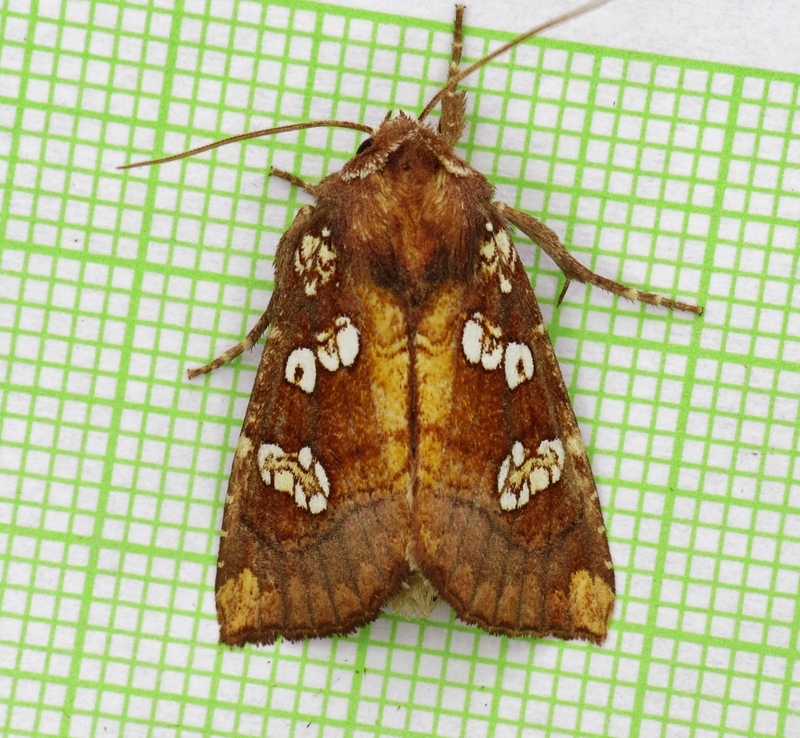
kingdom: Animalia
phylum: Arthropoda
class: Insecta
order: Lepidoptera
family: Noctuidae
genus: Papaipema
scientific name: Papaipema insulidens
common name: Ragwort stem borer moth
